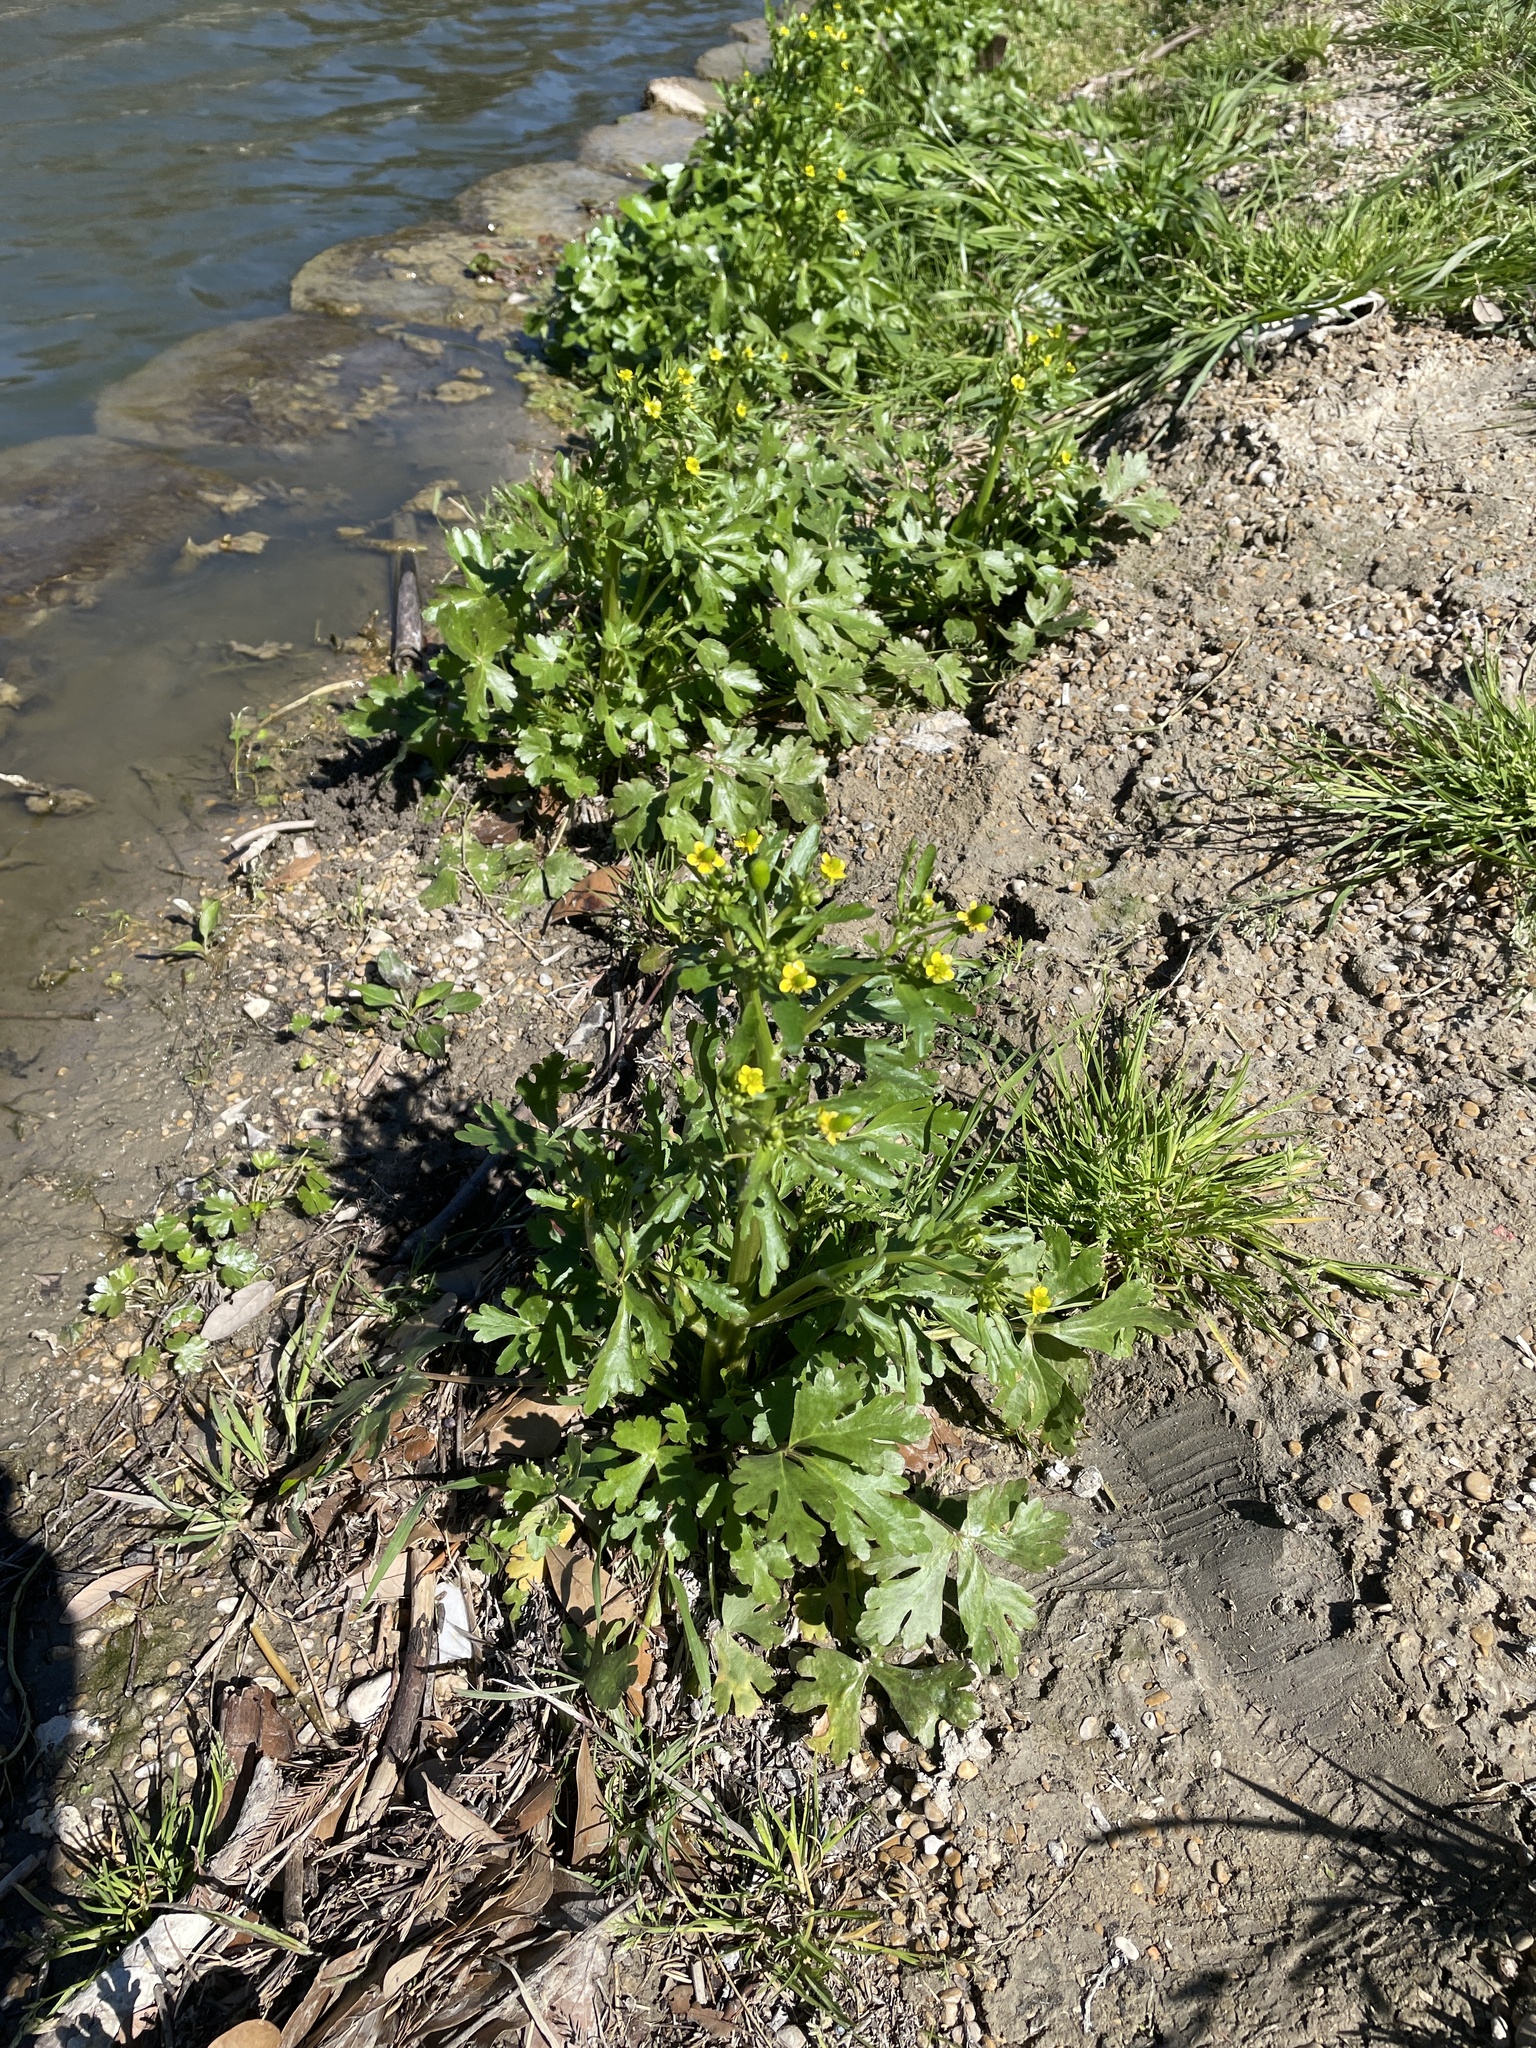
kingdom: Plantae
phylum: Tracheophyta
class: Magnoliopsida
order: Ranunculales
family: Ranunculaceae
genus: Ranunculus
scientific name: Ranunculus sceleratus
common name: Celery-leaved buttercup
